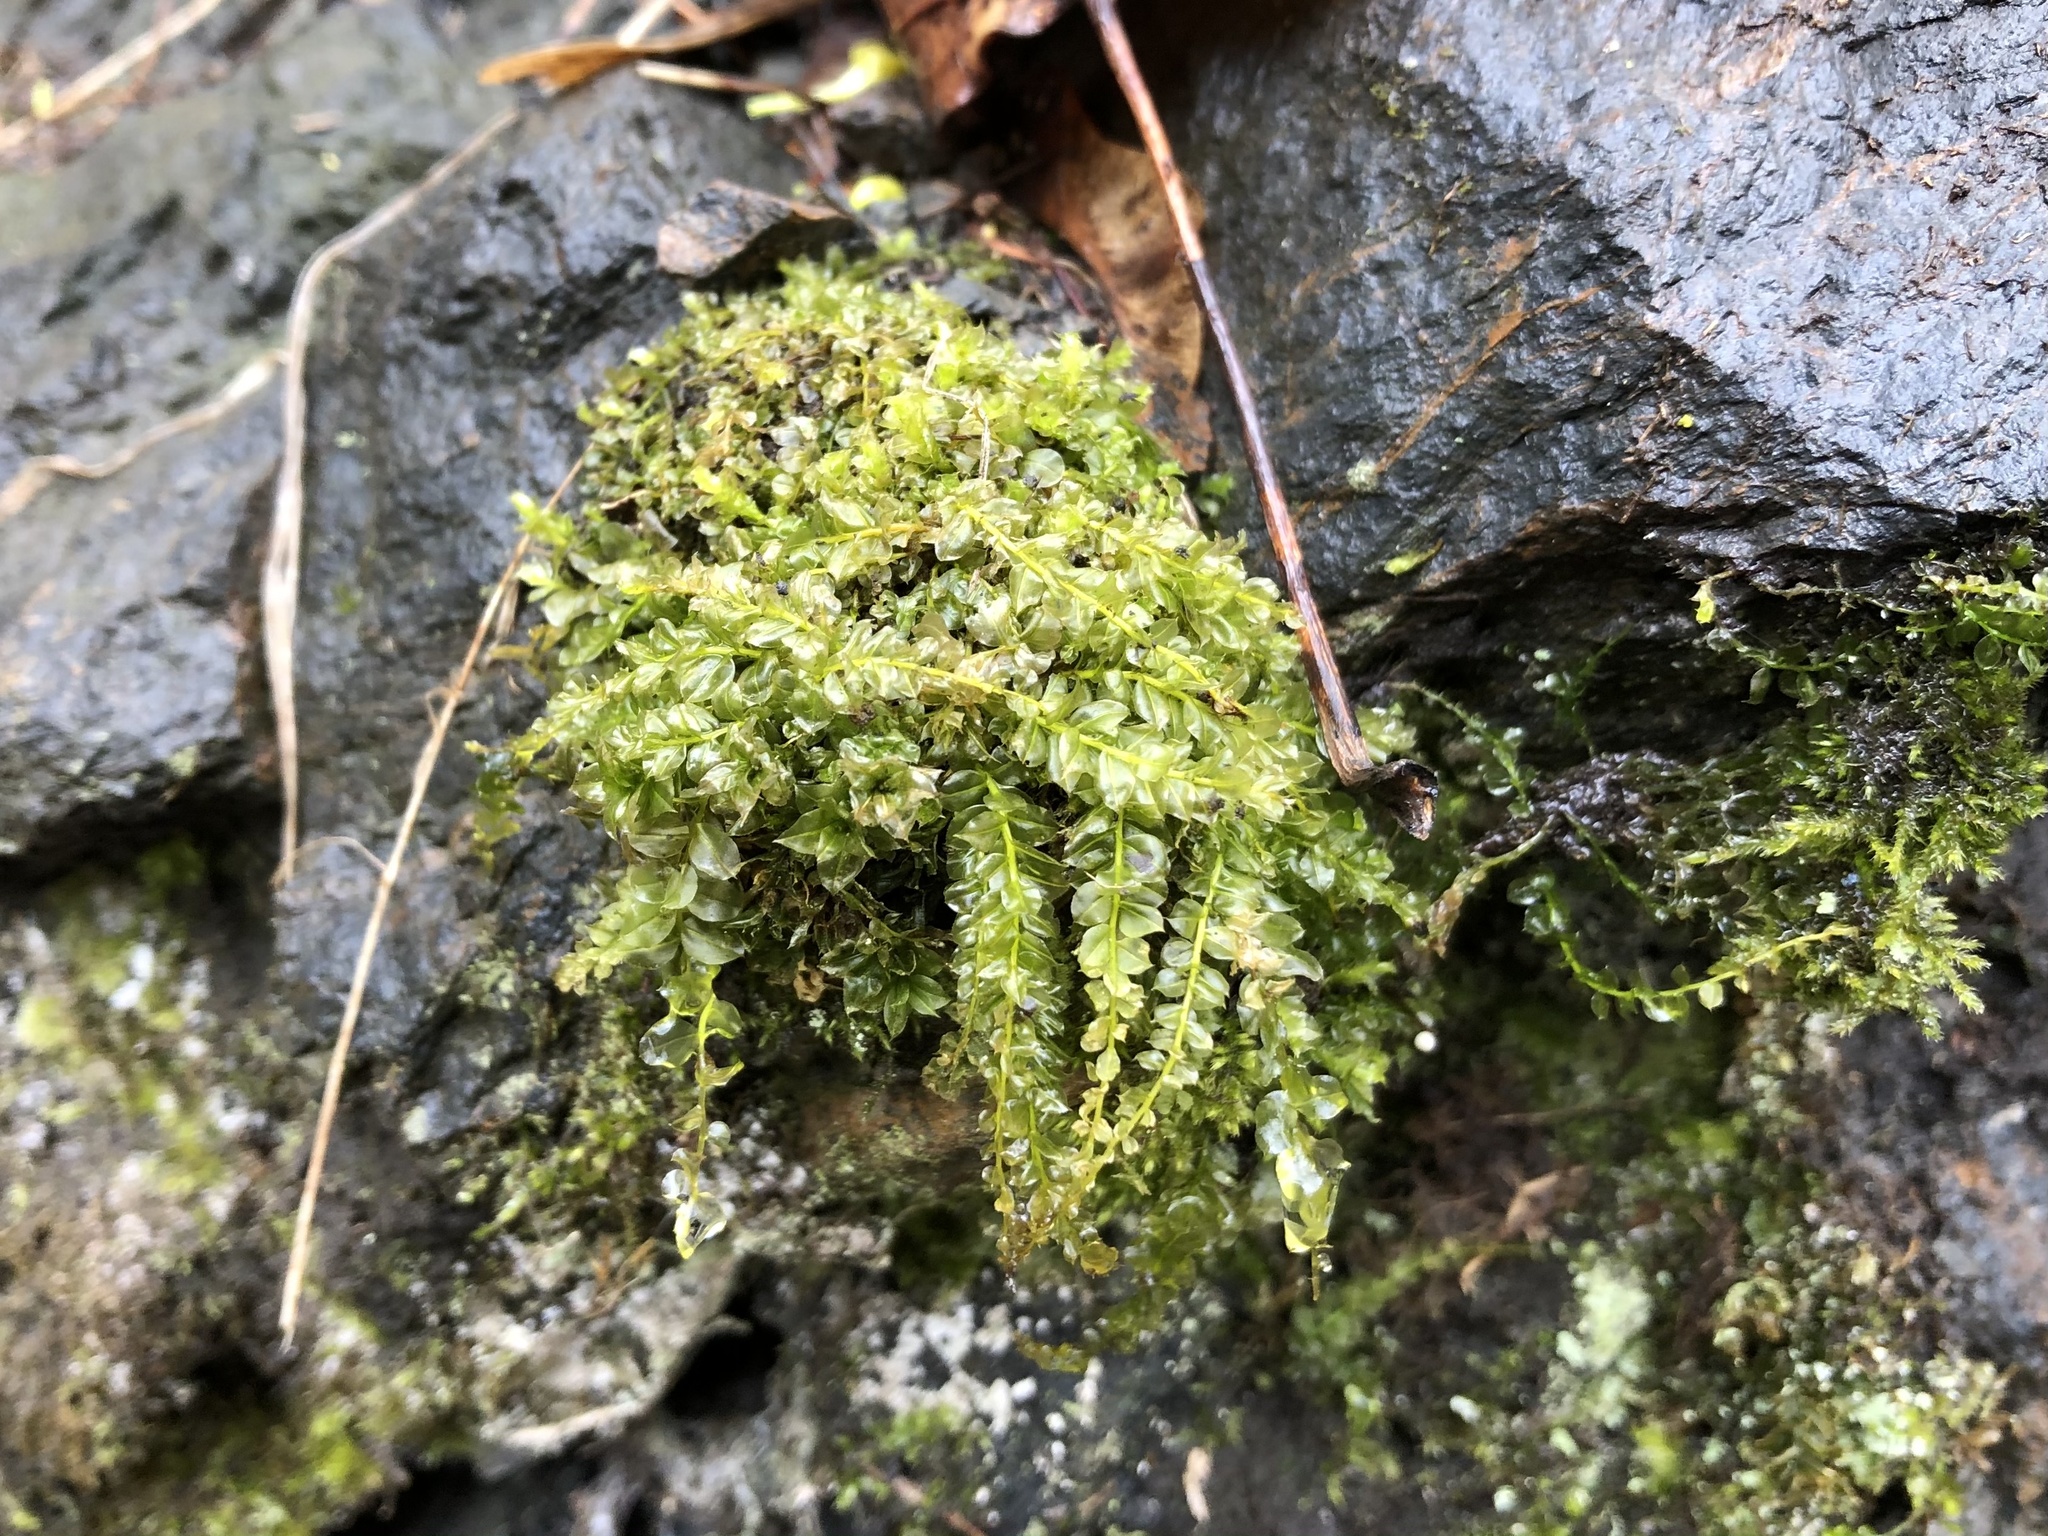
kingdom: Plantae
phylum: Bryophyta
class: Bryopsida
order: Bryales
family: Mniaceae
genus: Plagiomnium
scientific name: Plagiomnium cuspidatum
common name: Woodsy leafy moss
